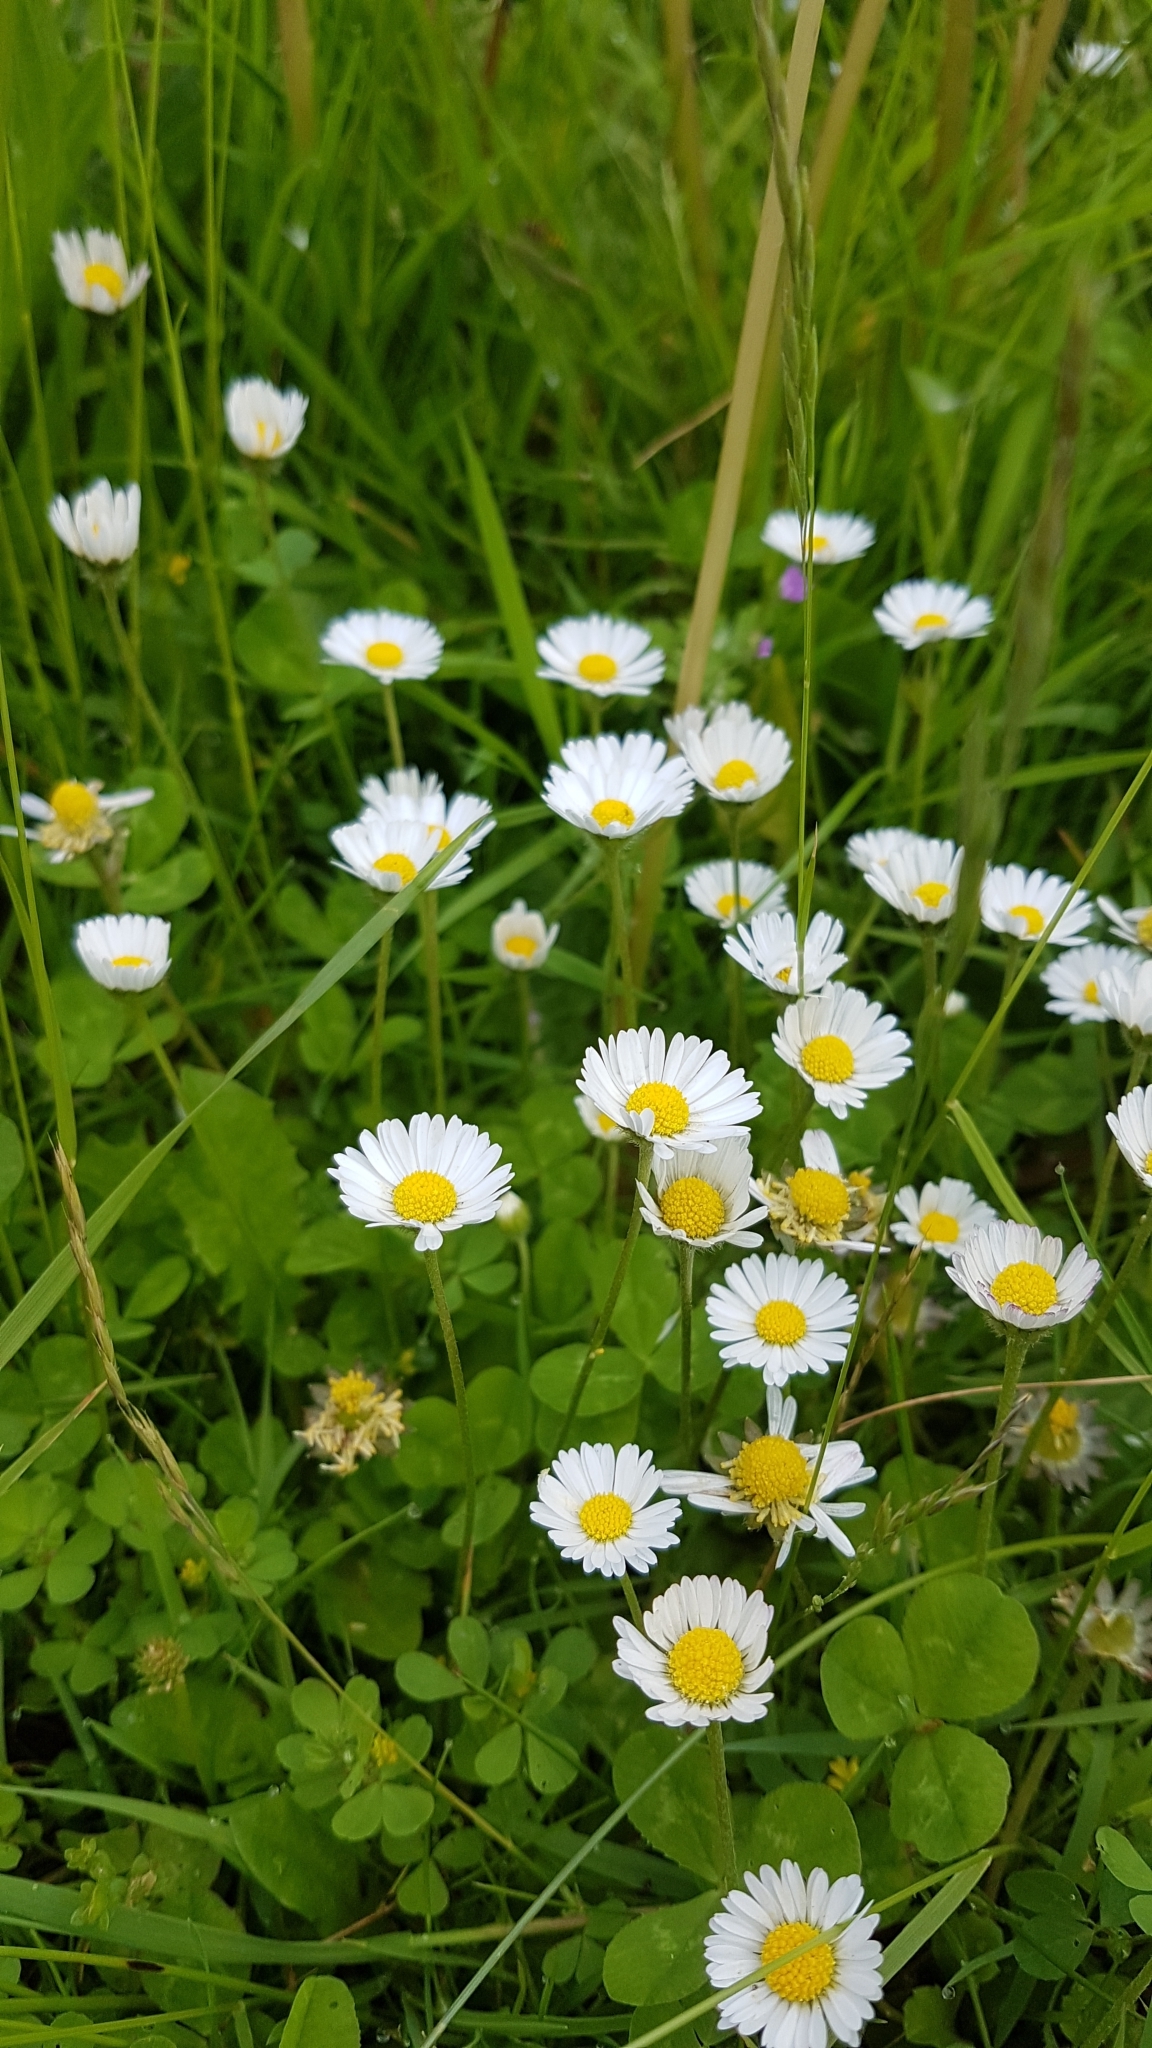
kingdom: Plantae
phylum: Tracheophyta
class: Magnoliopsida
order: Asterales
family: Asteraceae
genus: Bellis
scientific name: Bellis perennis
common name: Lawndaisy
